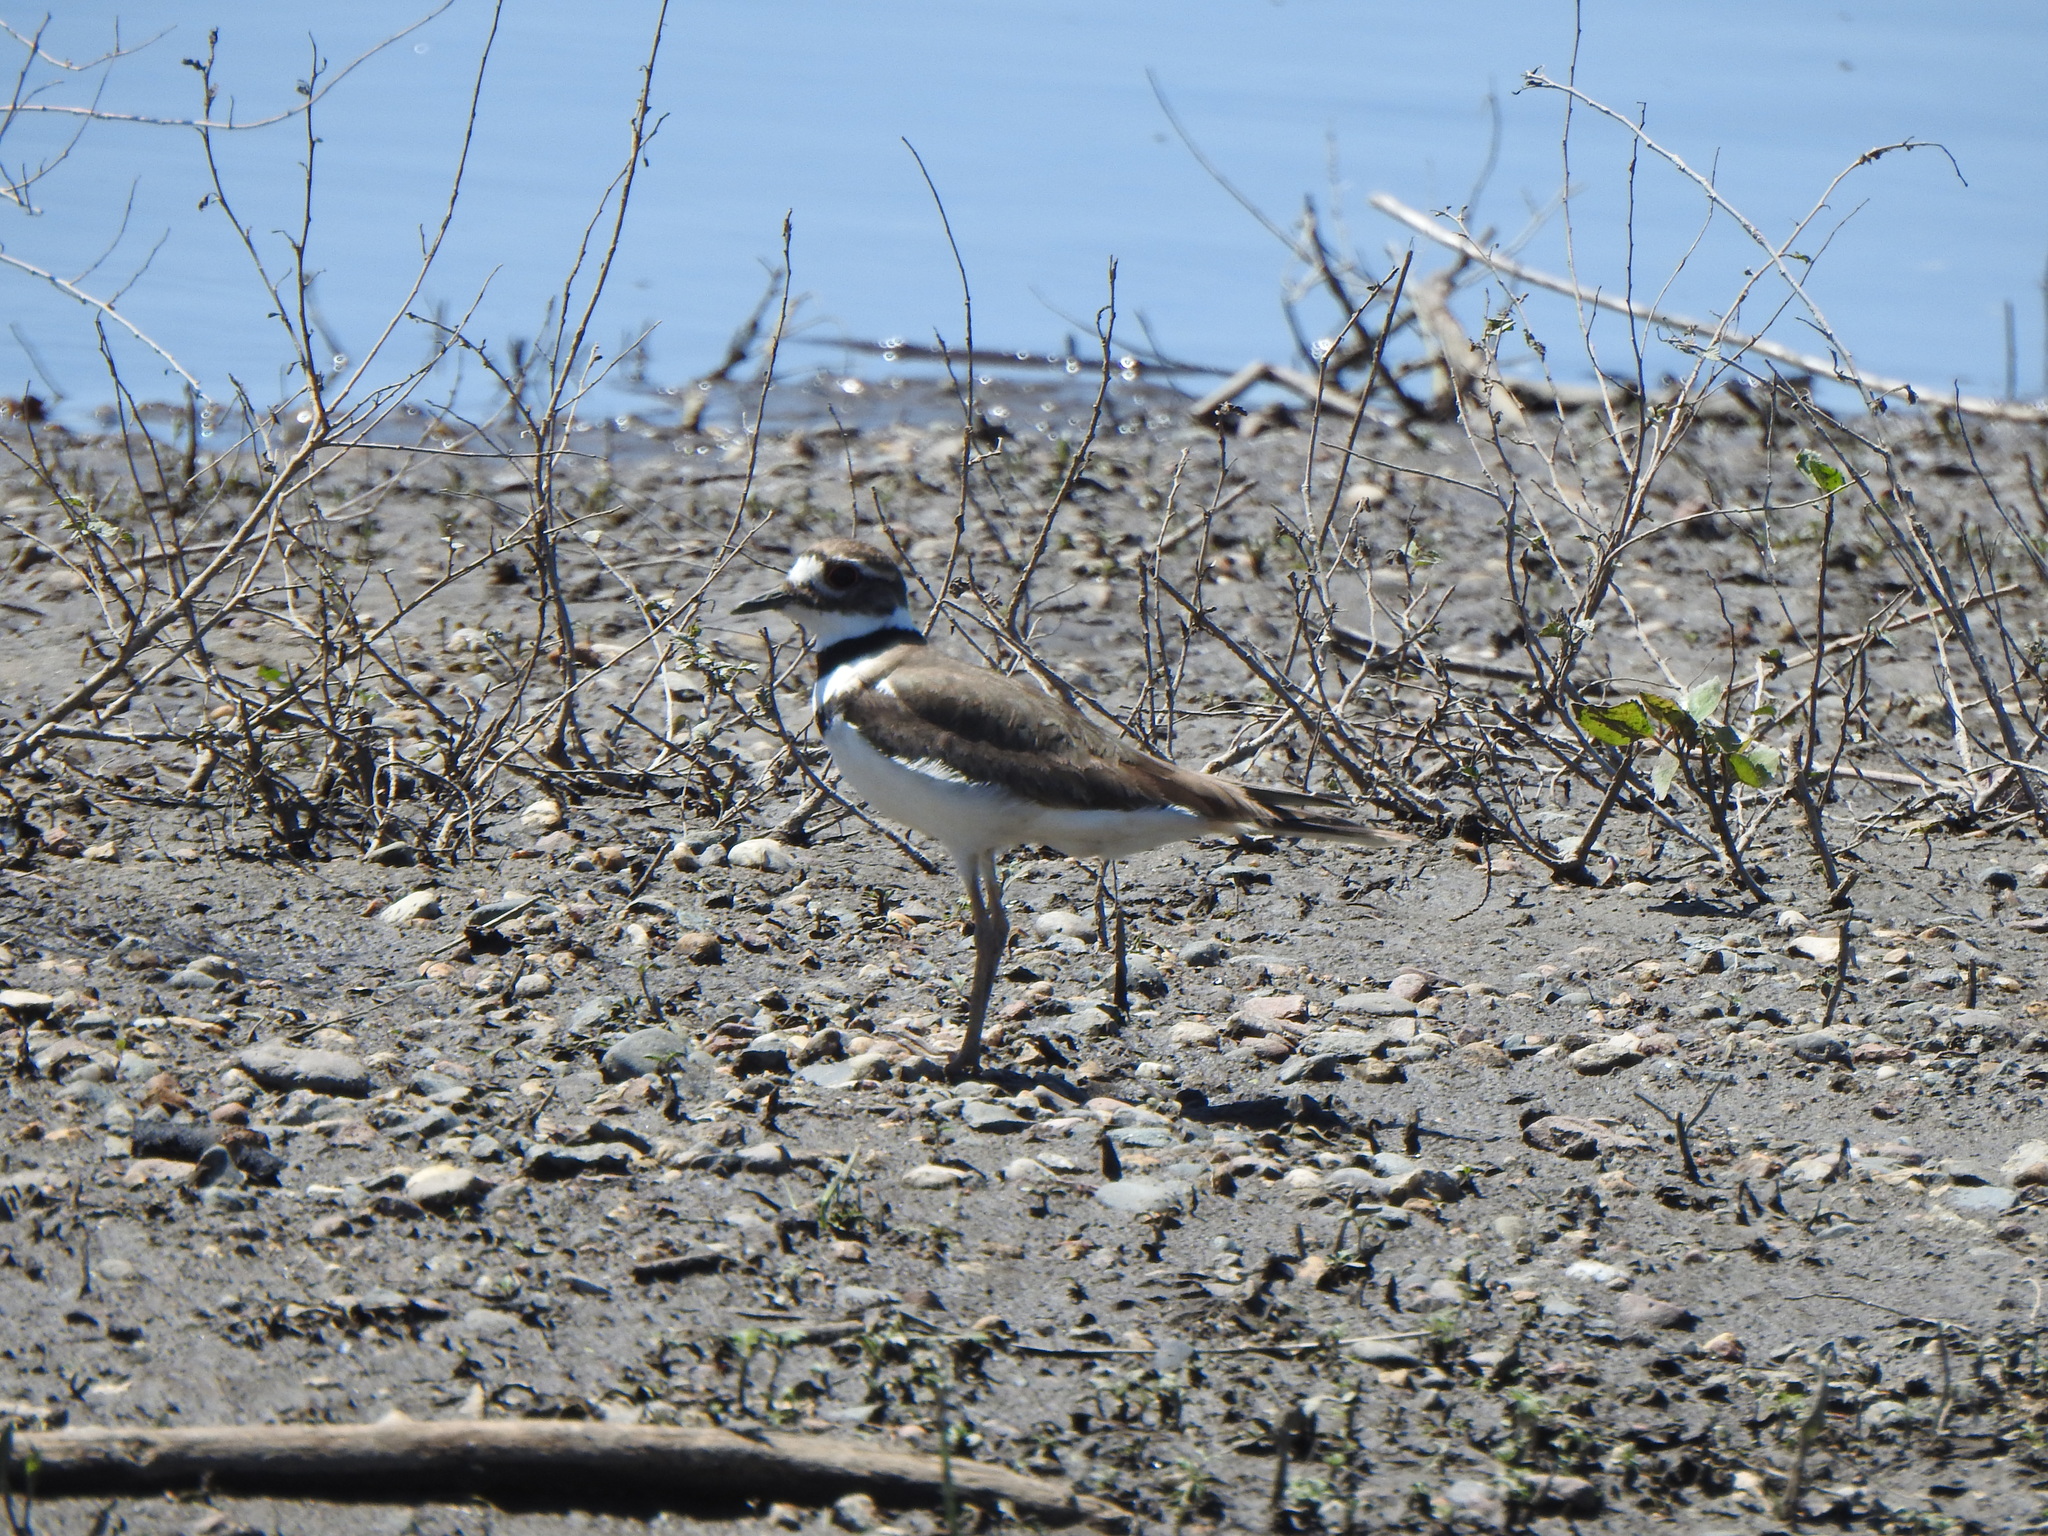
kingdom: Animalia
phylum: Chordata
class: Aves
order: Charadriiformes
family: Charadriidae
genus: Charadrius
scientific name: Charadrius vociferus
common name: Killdeer
